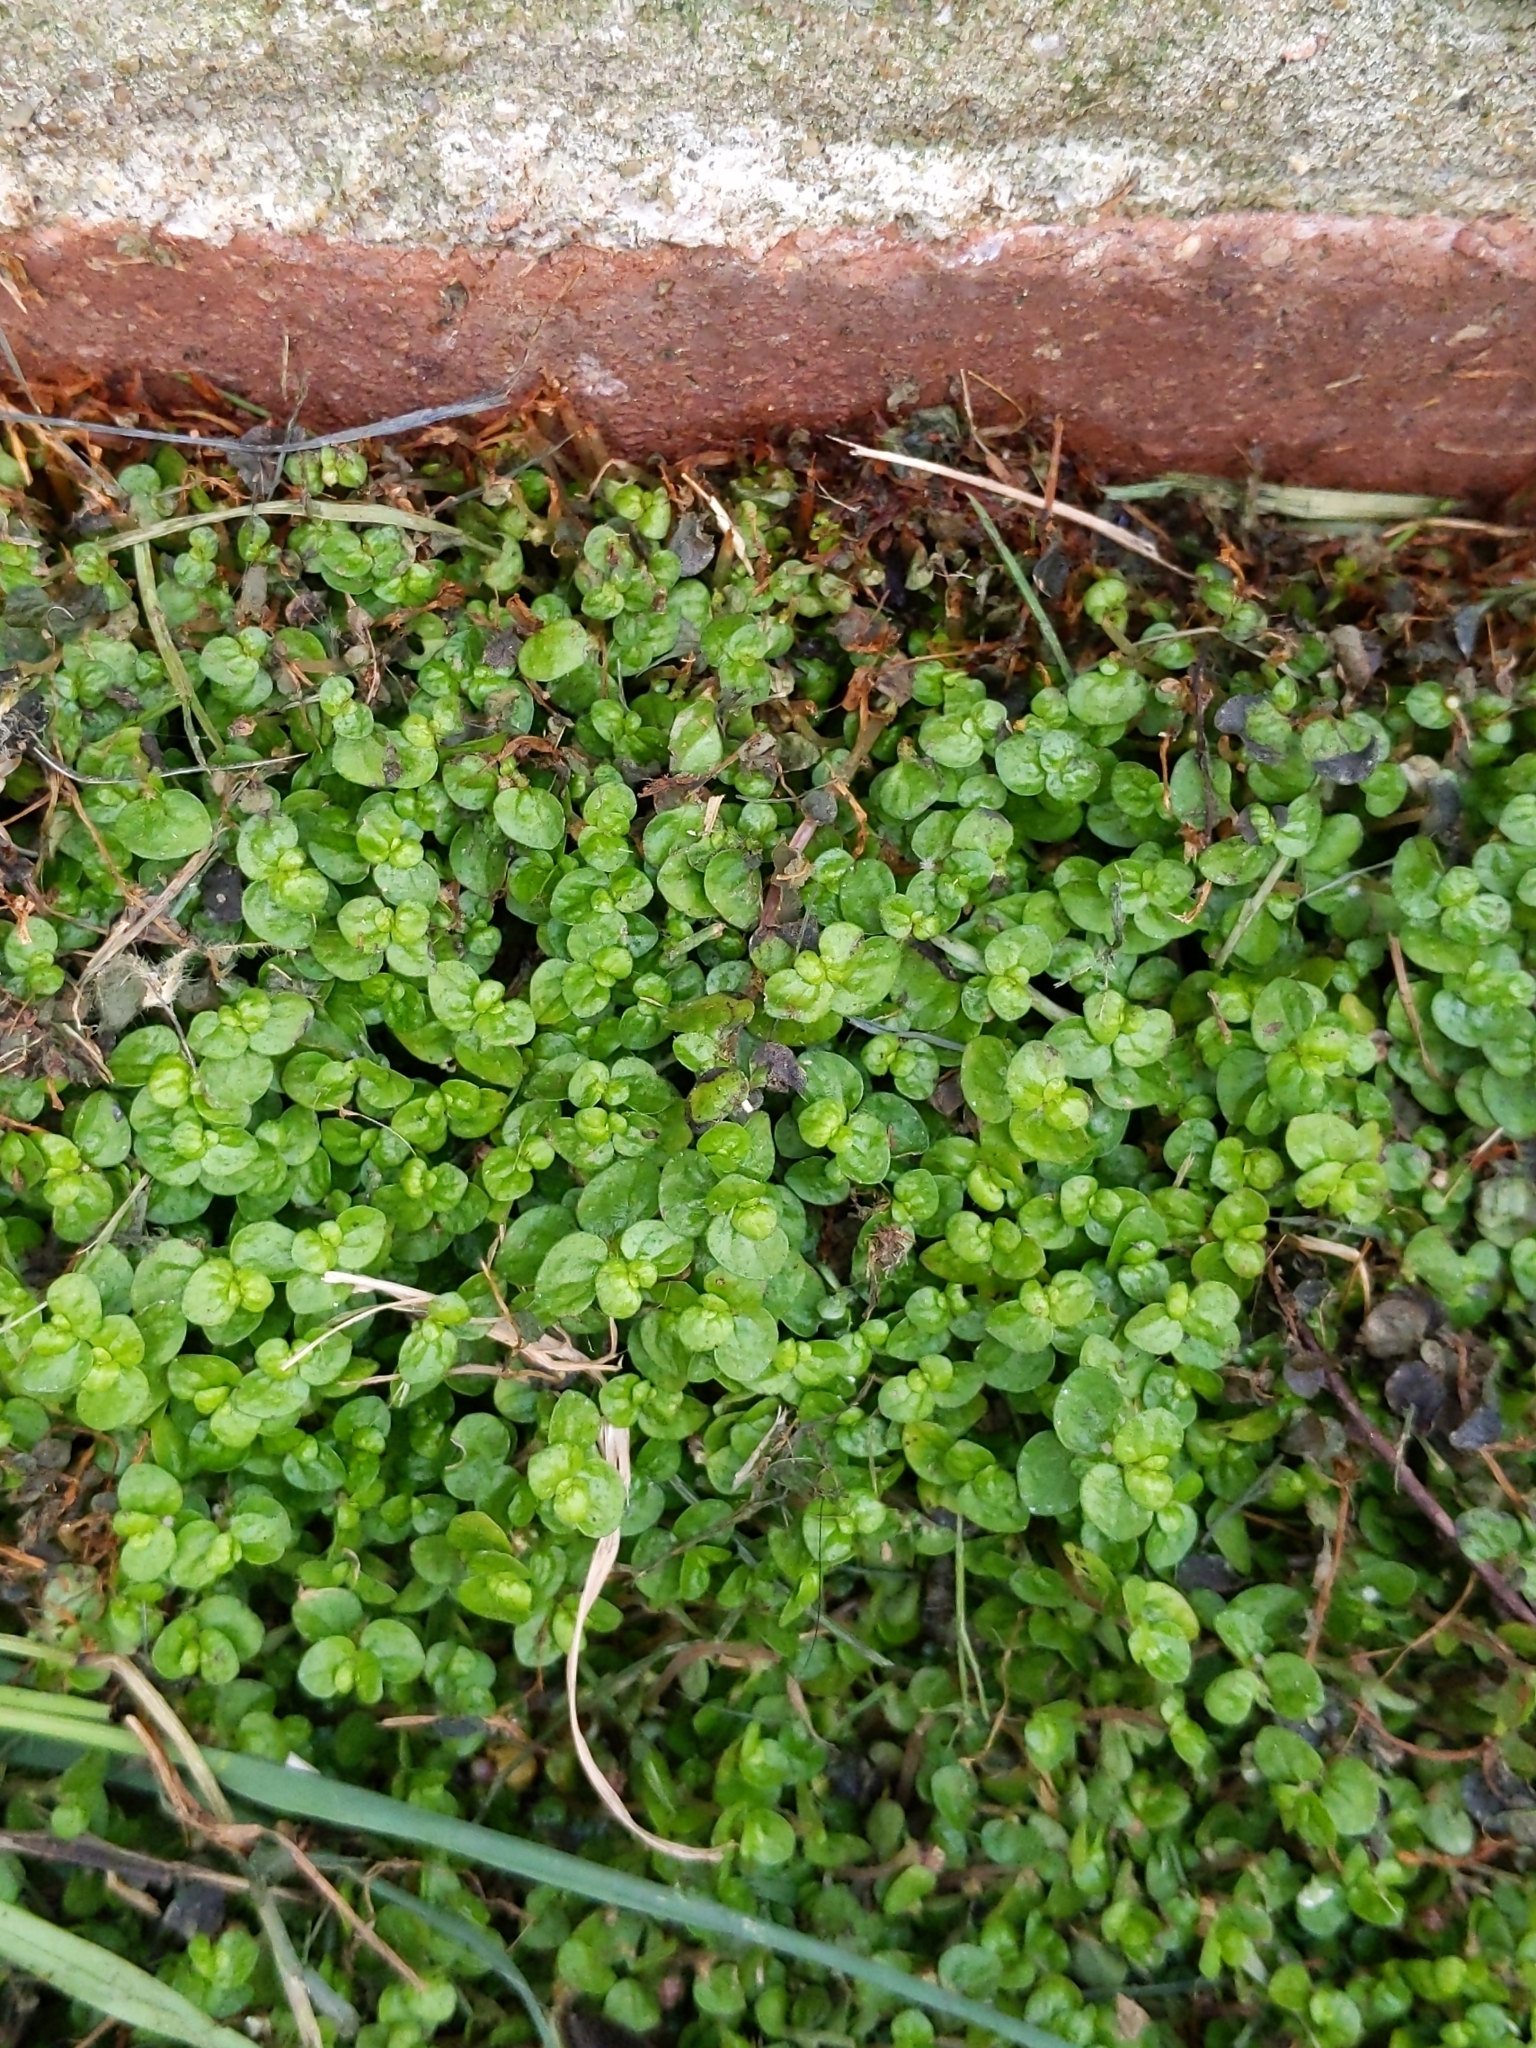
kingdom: Plantae
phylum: Tracheophyta
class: Magnoliopsida
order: Rosales
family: Urticaceae
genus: Soleirolia
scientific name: Soleirolia soleirolii
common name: Mind-your-own-business
